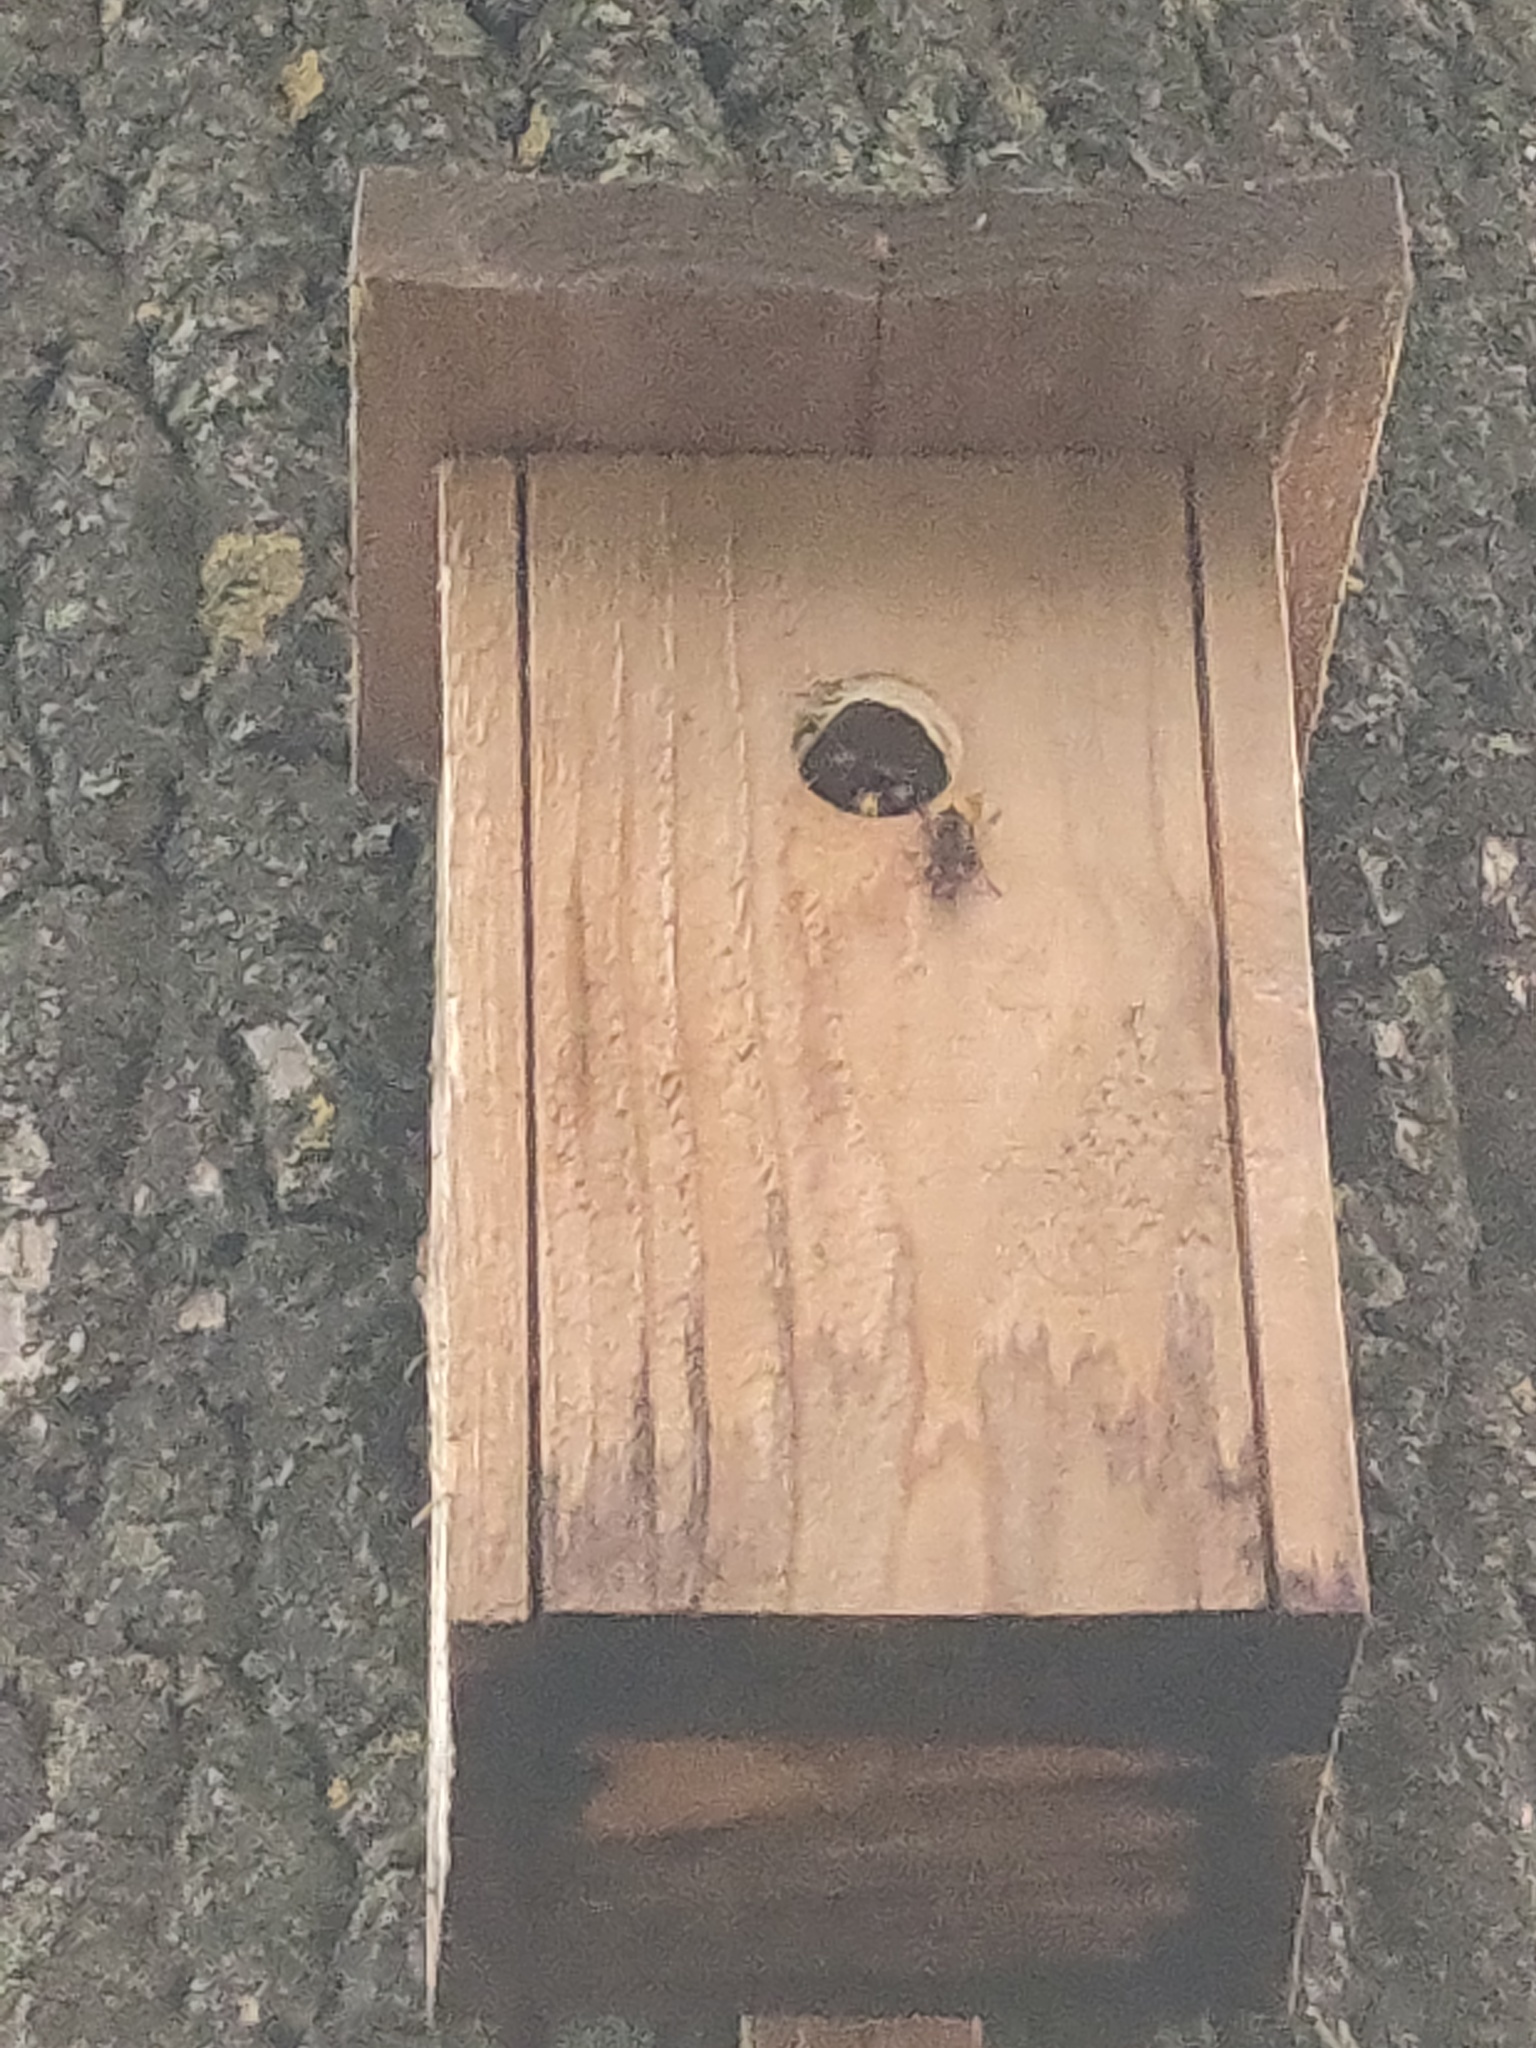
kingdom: Animalia
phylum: Arthropoda
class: Insecta
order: Hymenoptera
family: Vespidae
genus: Vespa
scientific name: Vespa crabro
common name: Hornet
